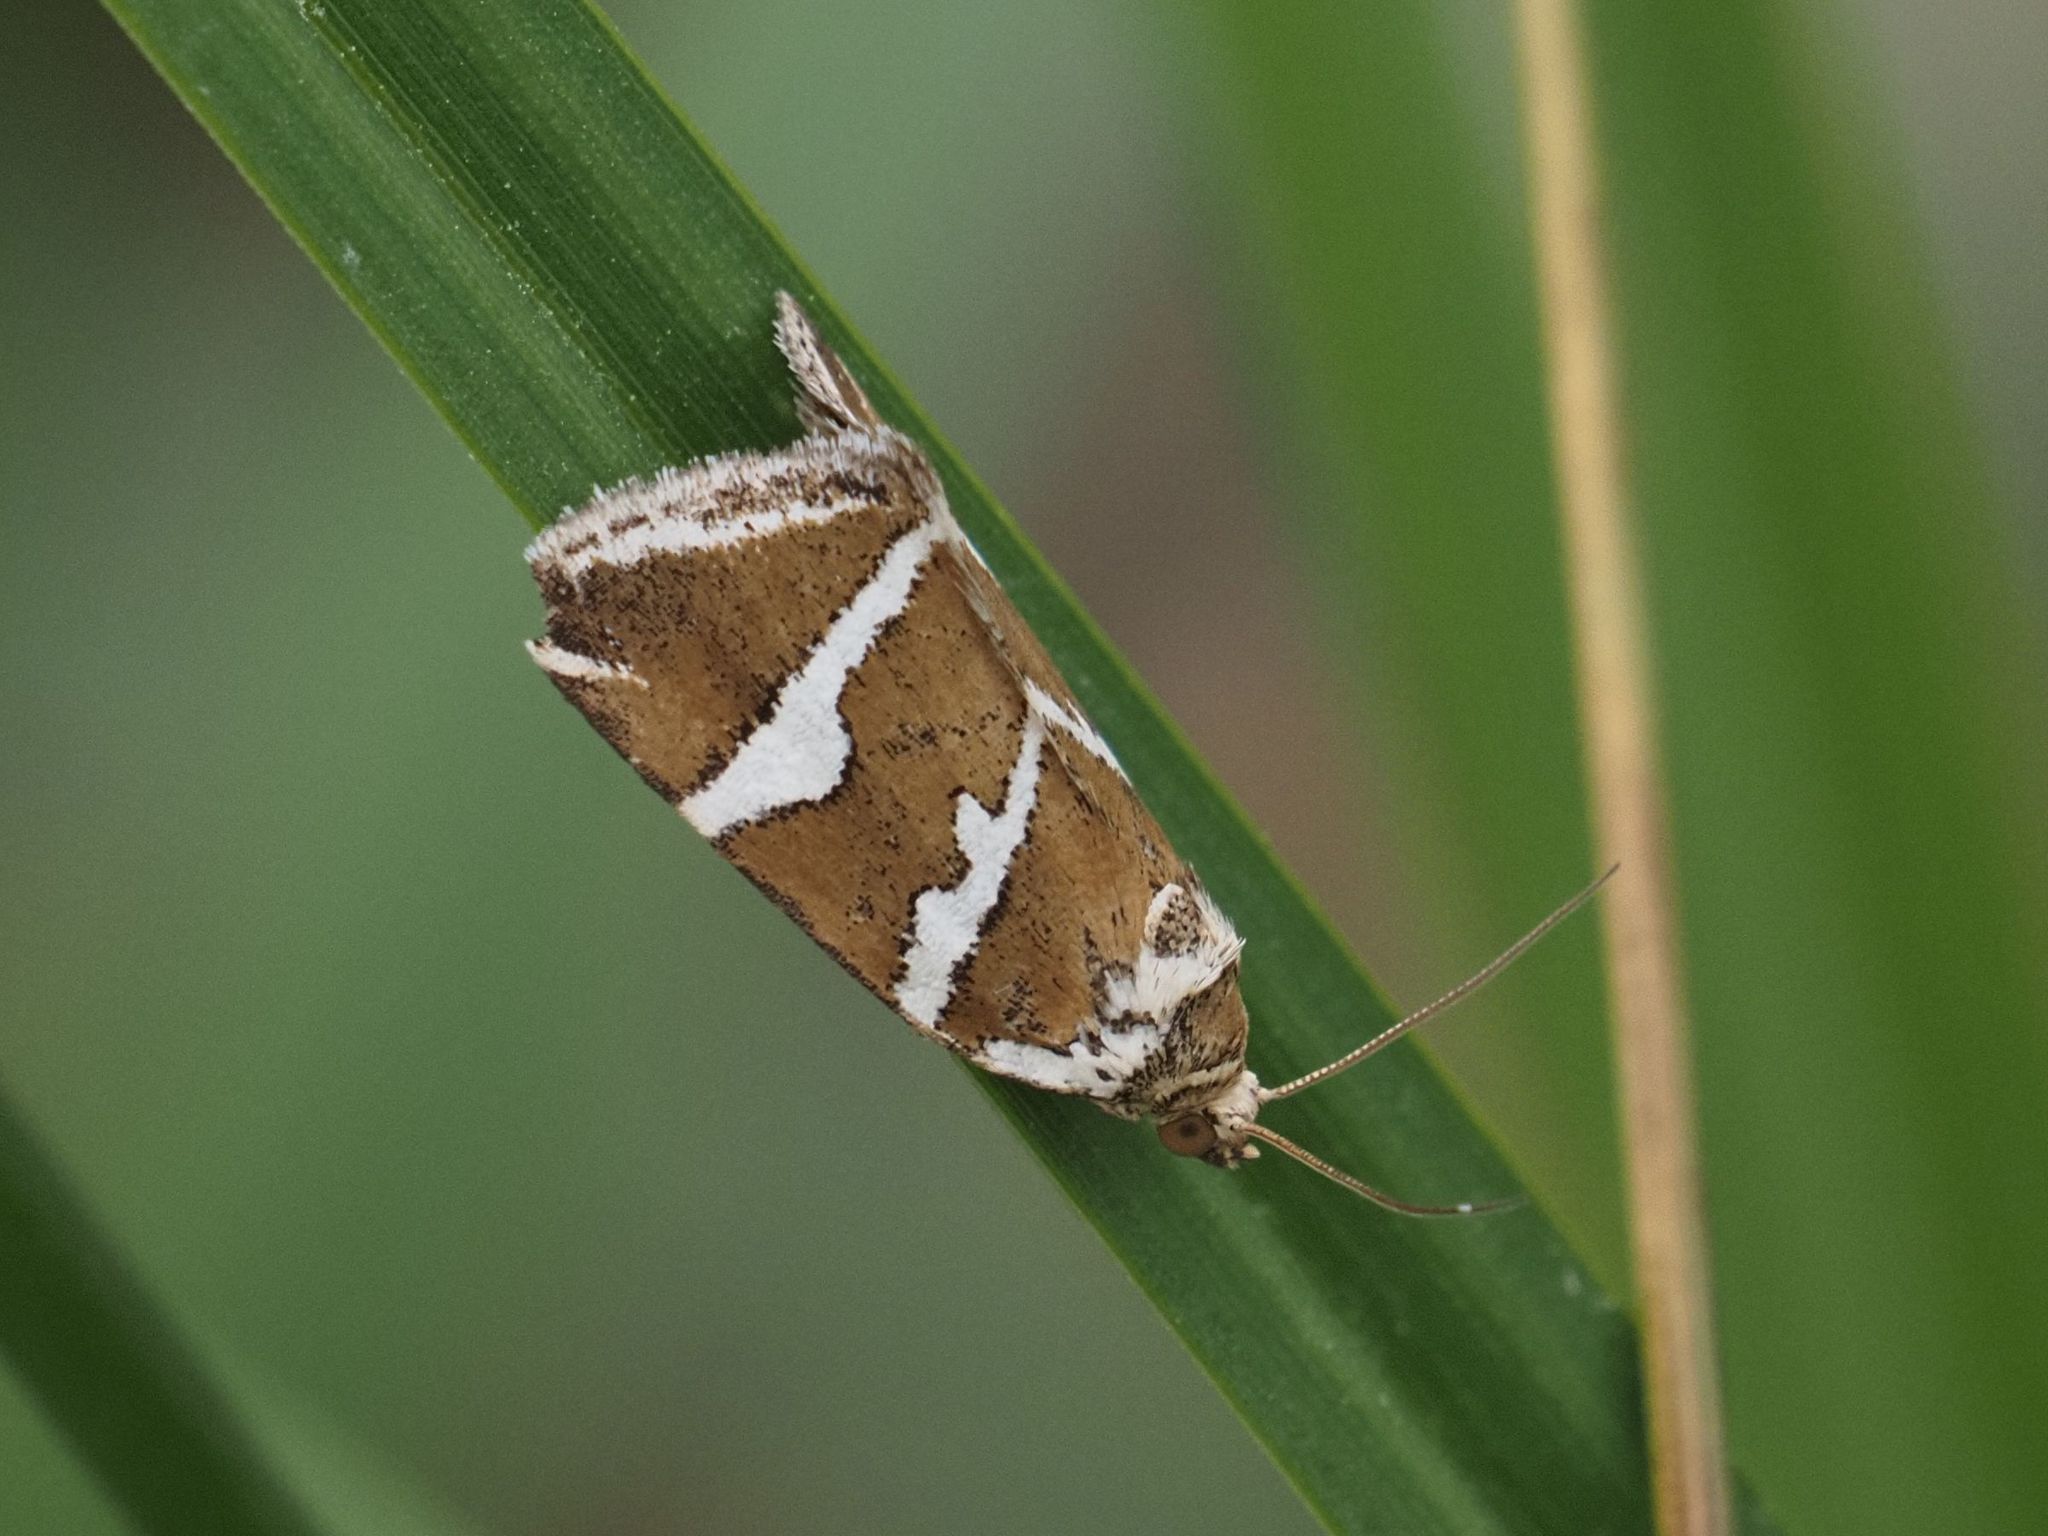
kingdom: Animalia
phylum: Arthropoda
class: Insecta
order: Lepidoptera
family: Noctuidae
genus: Deltote
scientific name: Deltote bankiana
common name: Silver barred
